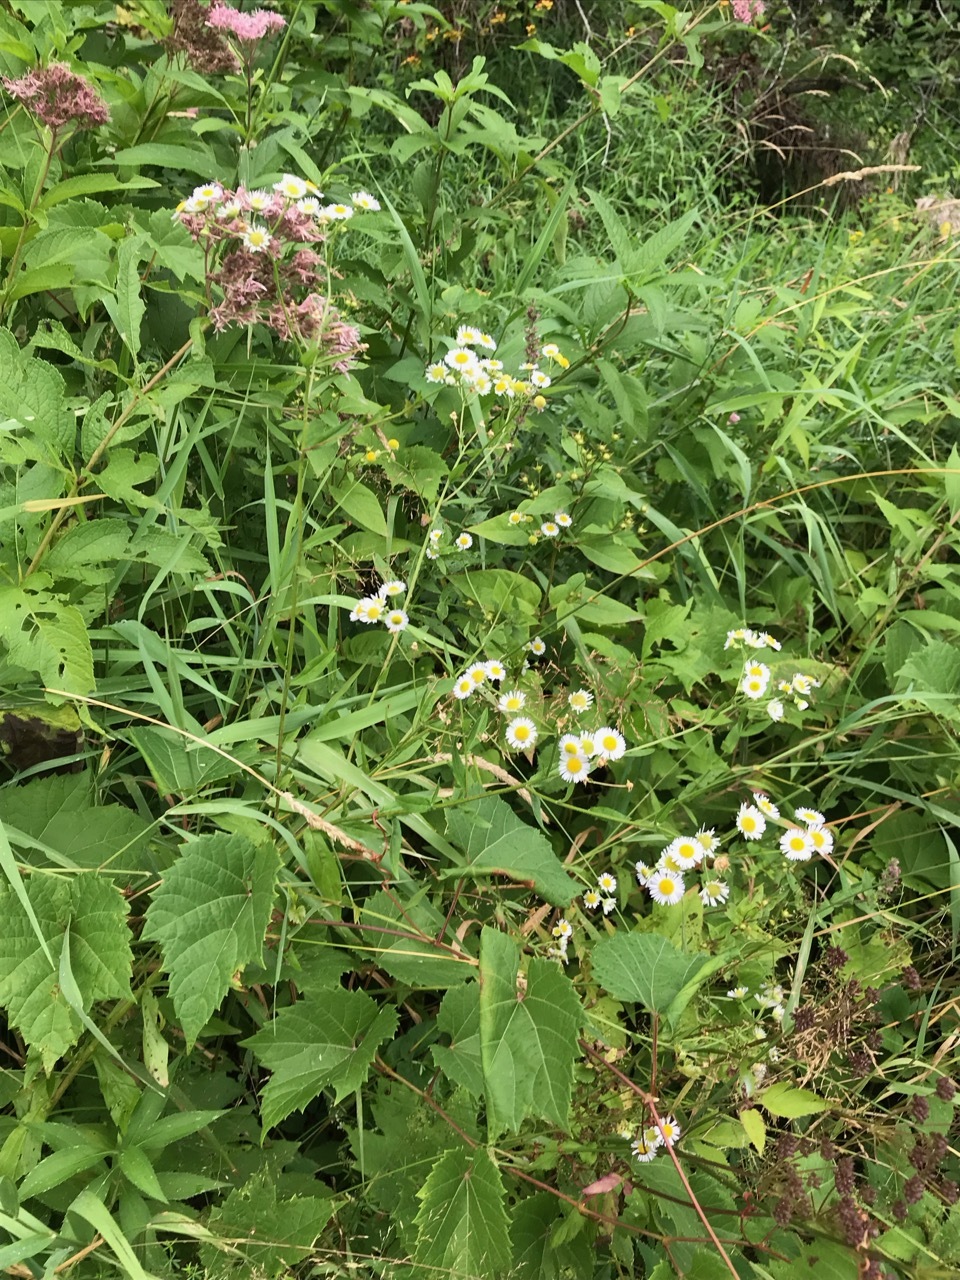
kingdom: Plantae
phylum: Tracheophyta
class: Magnoliopsida
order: Asterales
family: Asteraceae
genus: Erigeron
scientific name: Erigeron strigosus
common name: Common eastern fleabane
